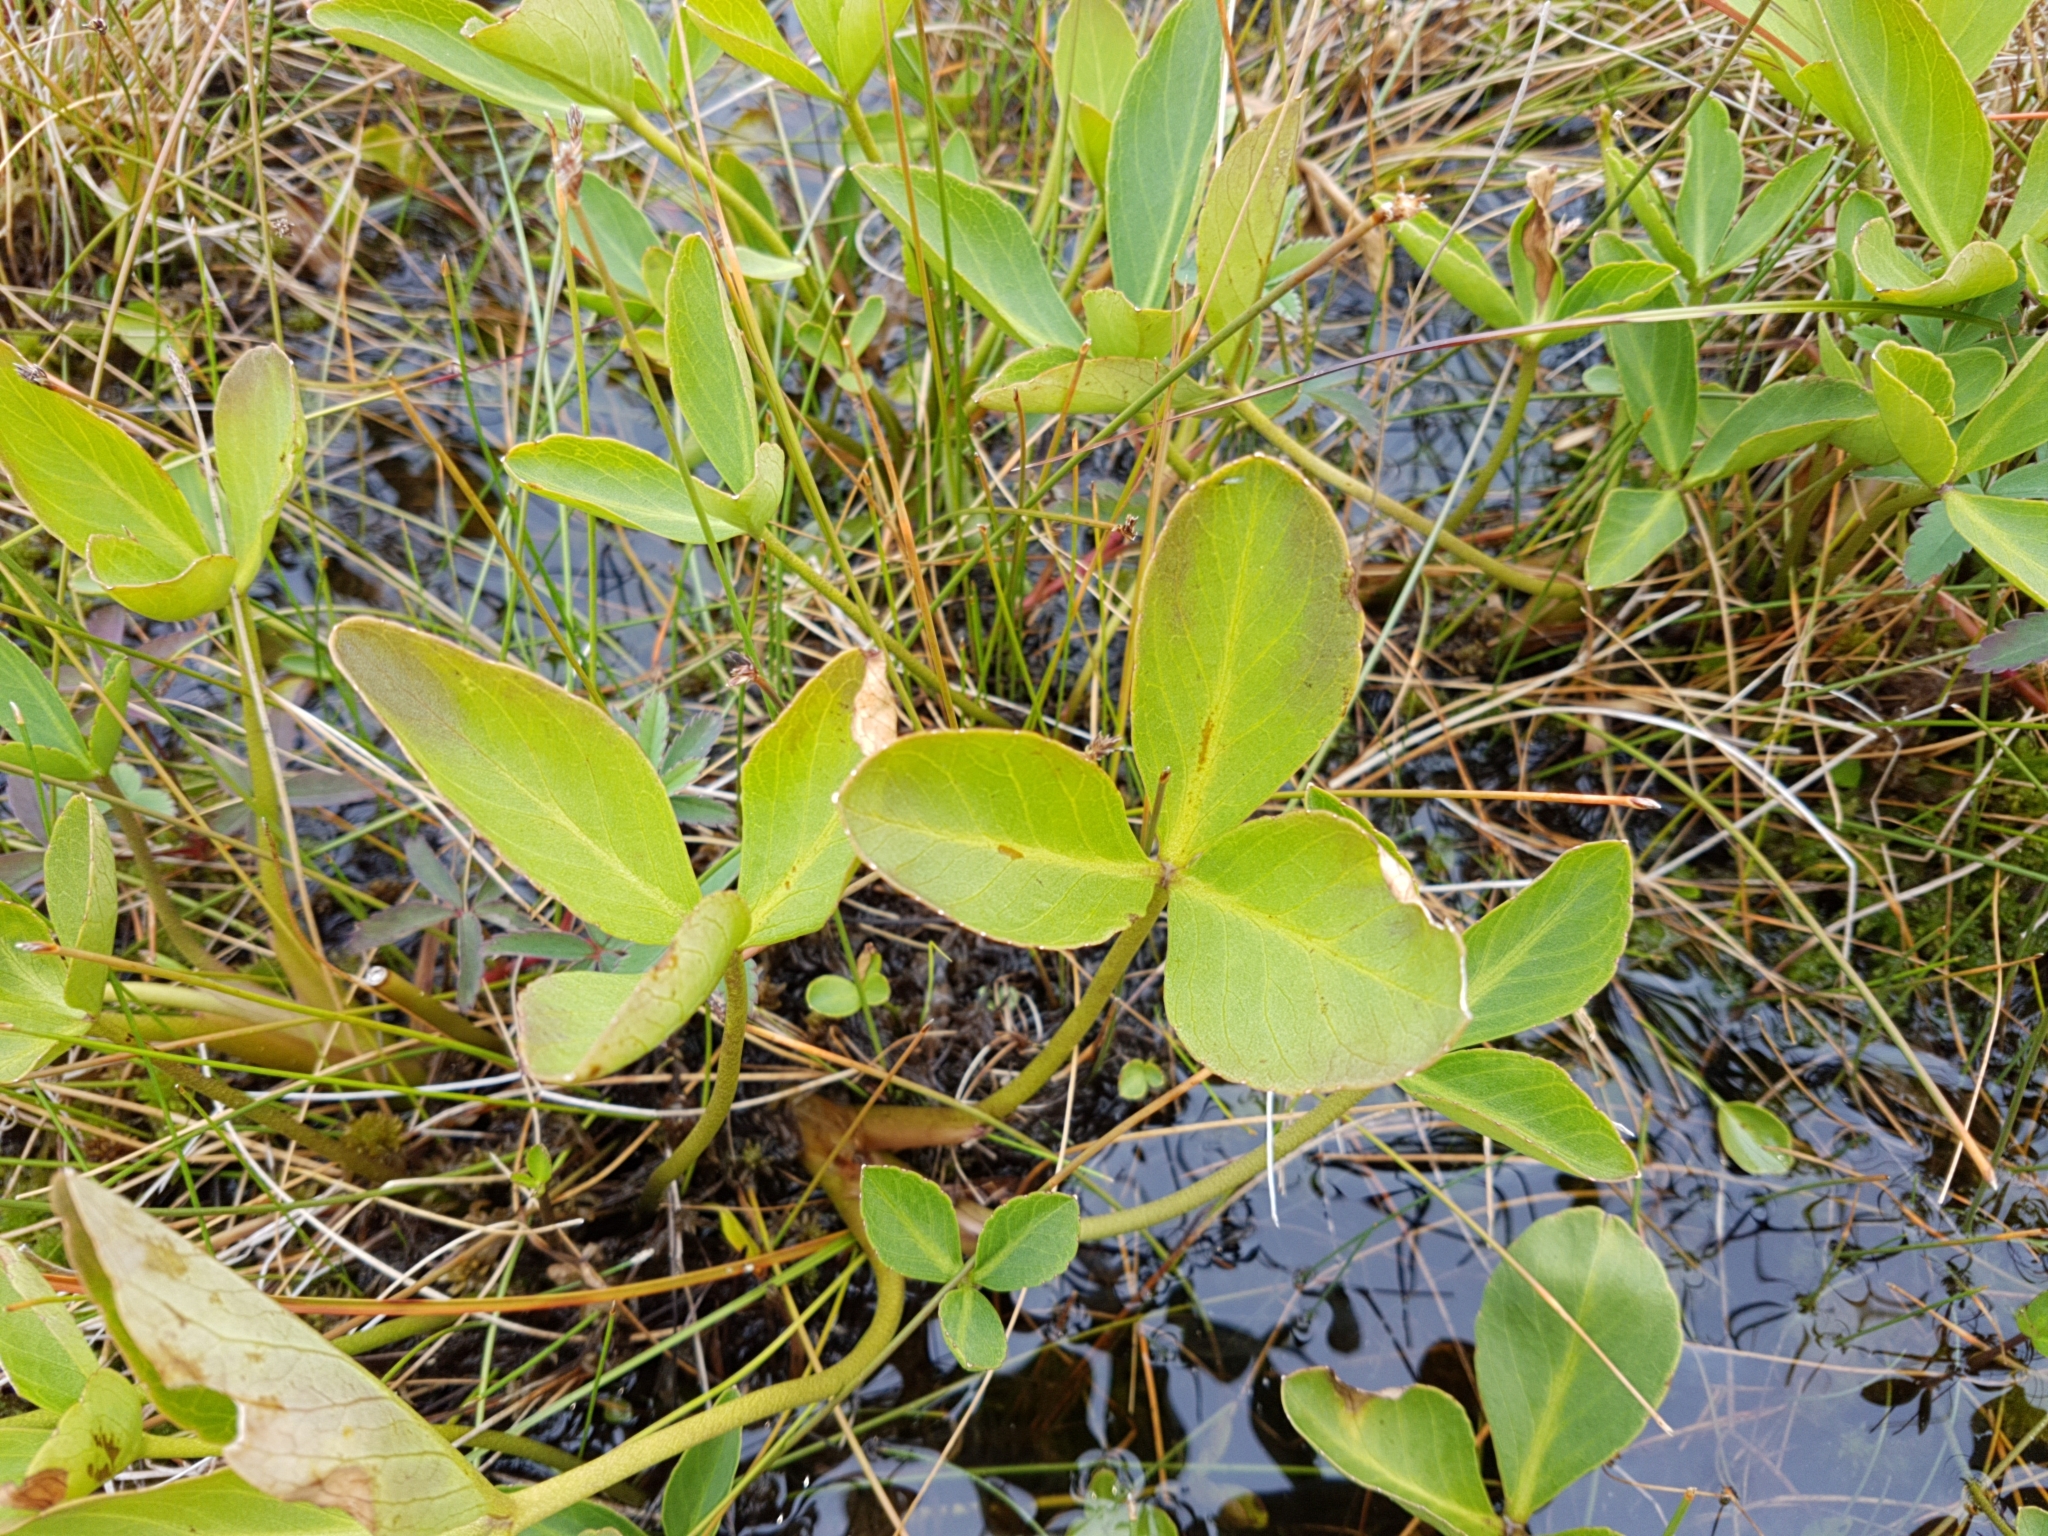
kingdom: Plantae
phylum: Tracheophyta
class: Magnoliopsida
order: Asterales
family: Menyanthaceae
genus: Menyanthes
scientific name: Menyanthes trifoliata
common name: Bogbean
